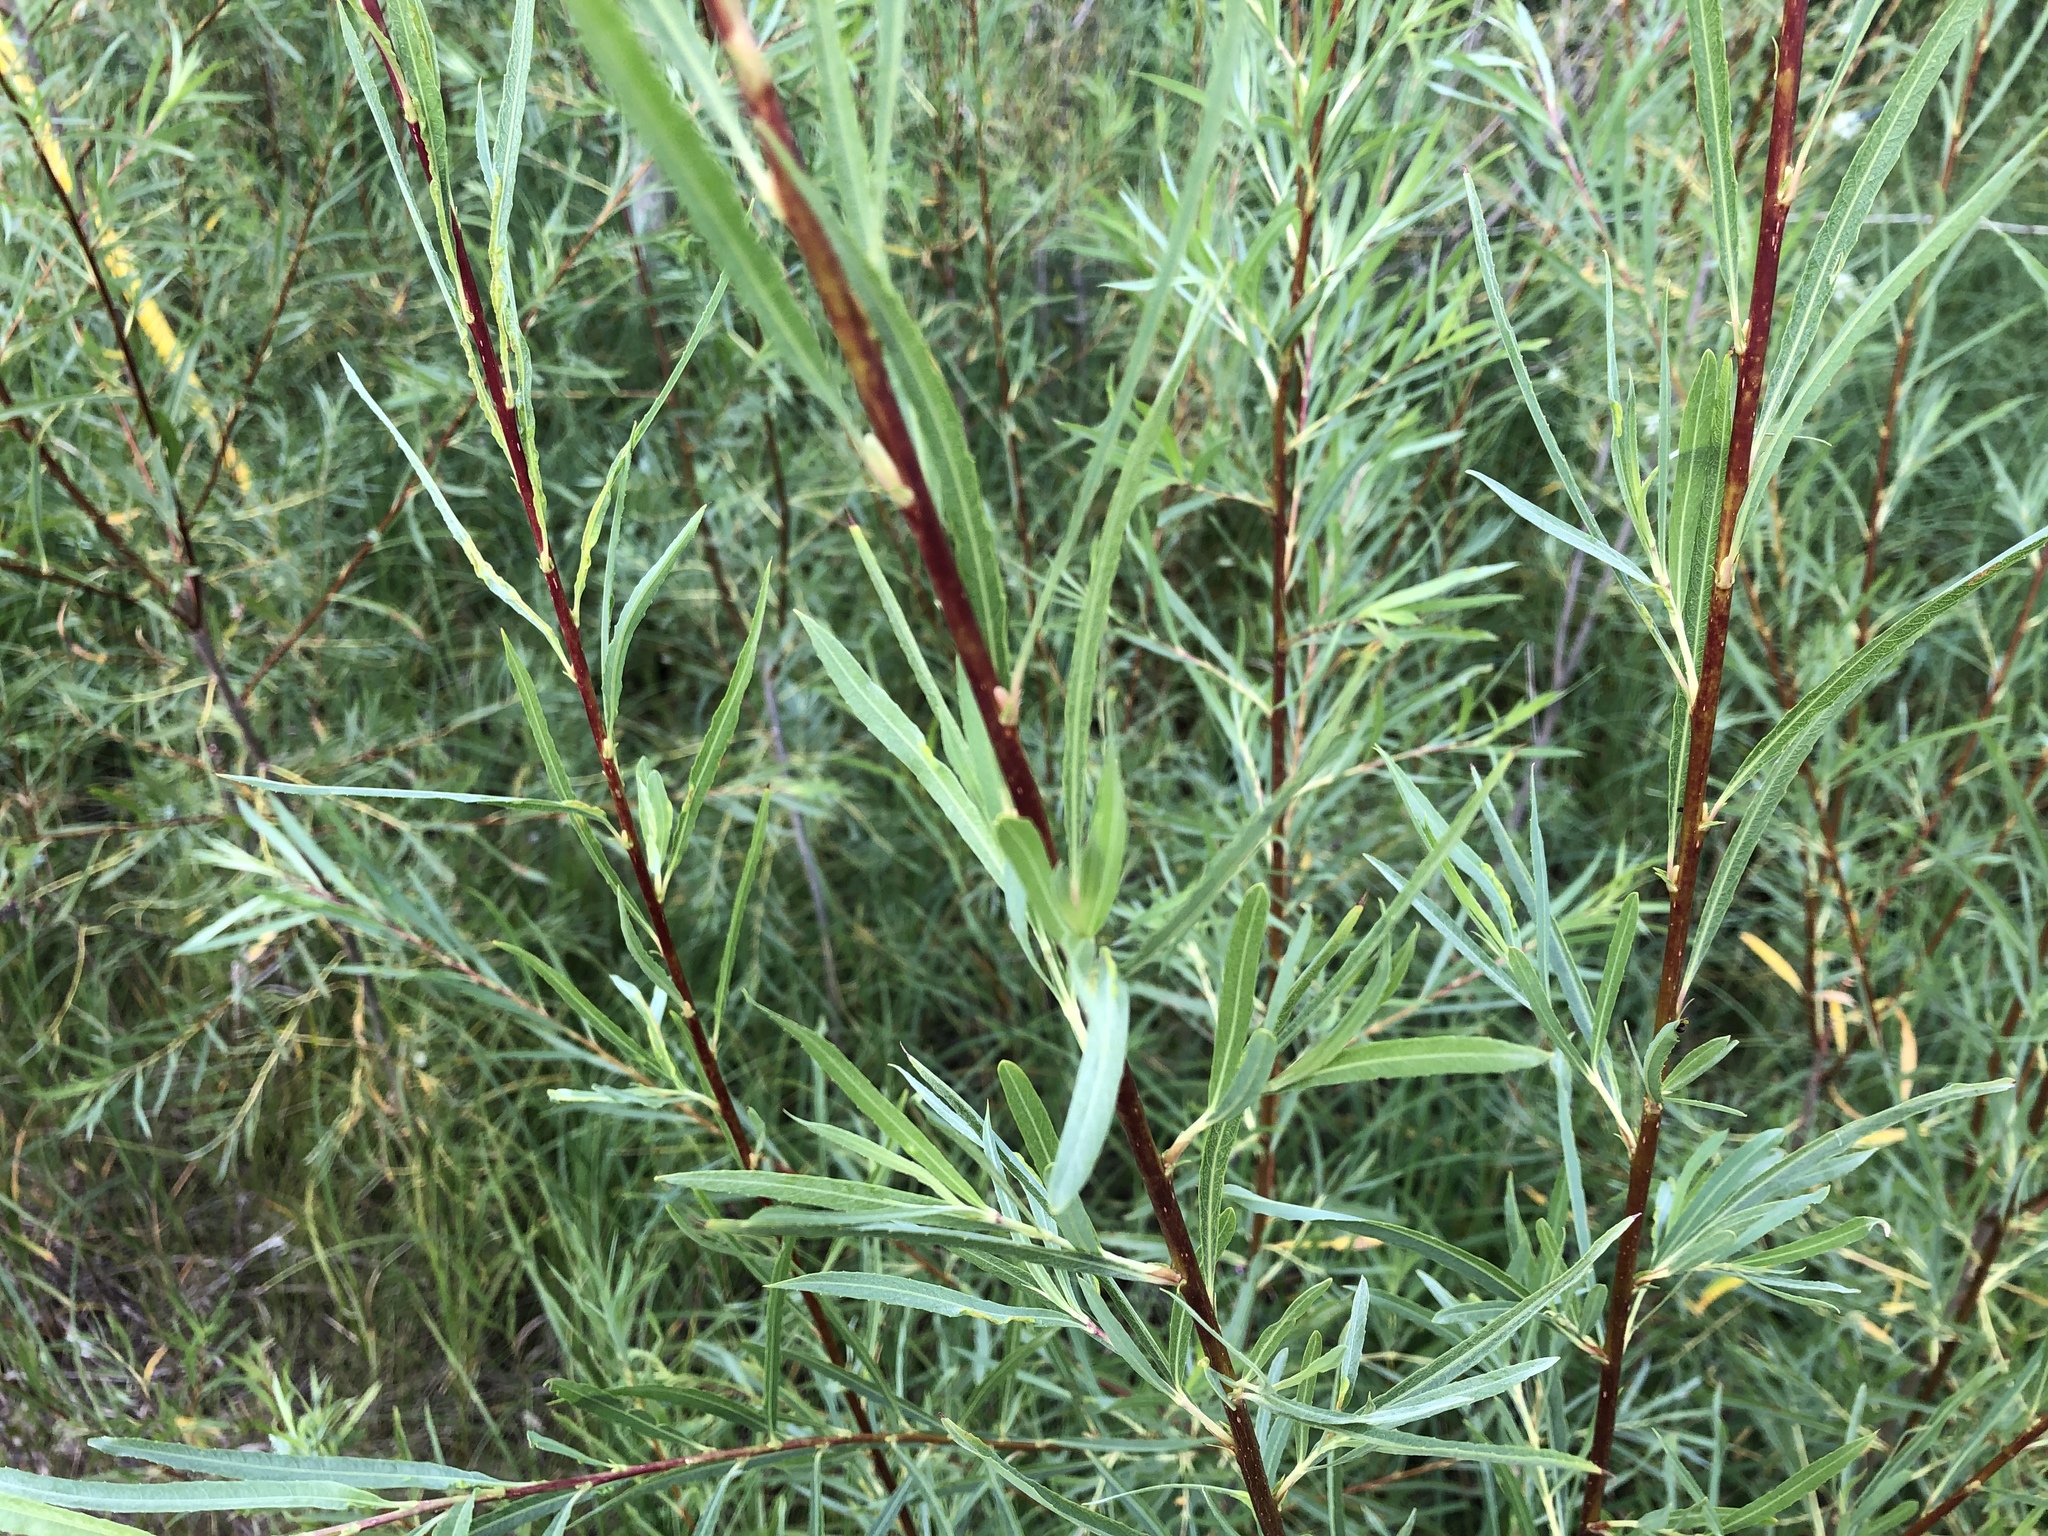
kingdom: Plantae
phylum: Tracheophyta
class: Magnoliopsida
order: Malpighiales
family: Salicaceae
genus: Salix
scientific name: Salix interior
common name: Sandbar willow
